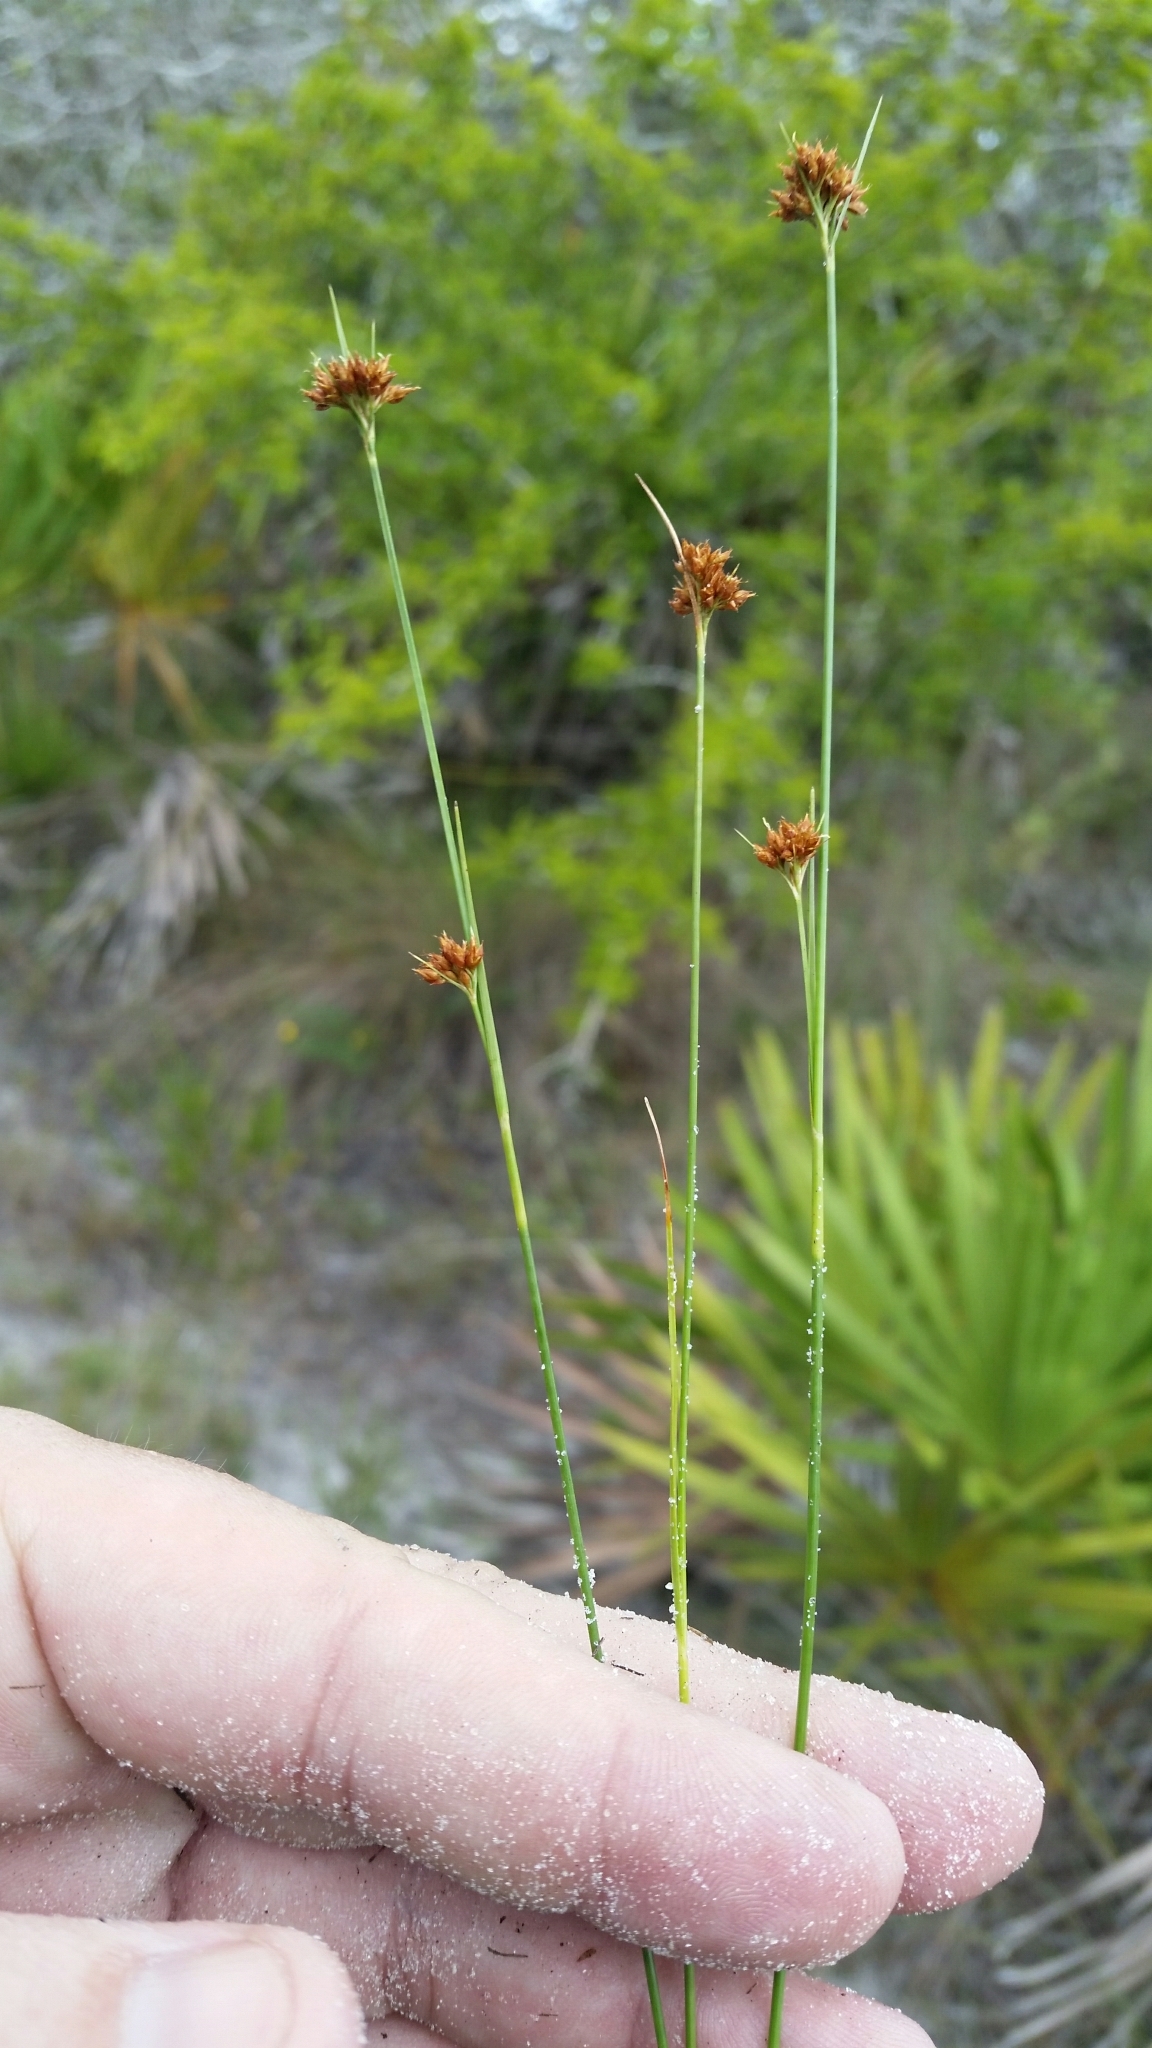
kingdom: Plantae
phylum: Tracheophyta
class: Liliopsida
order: Poales
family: Cyperaceae
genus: Rhynchospora
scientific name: Rhynchospora fernaldii
